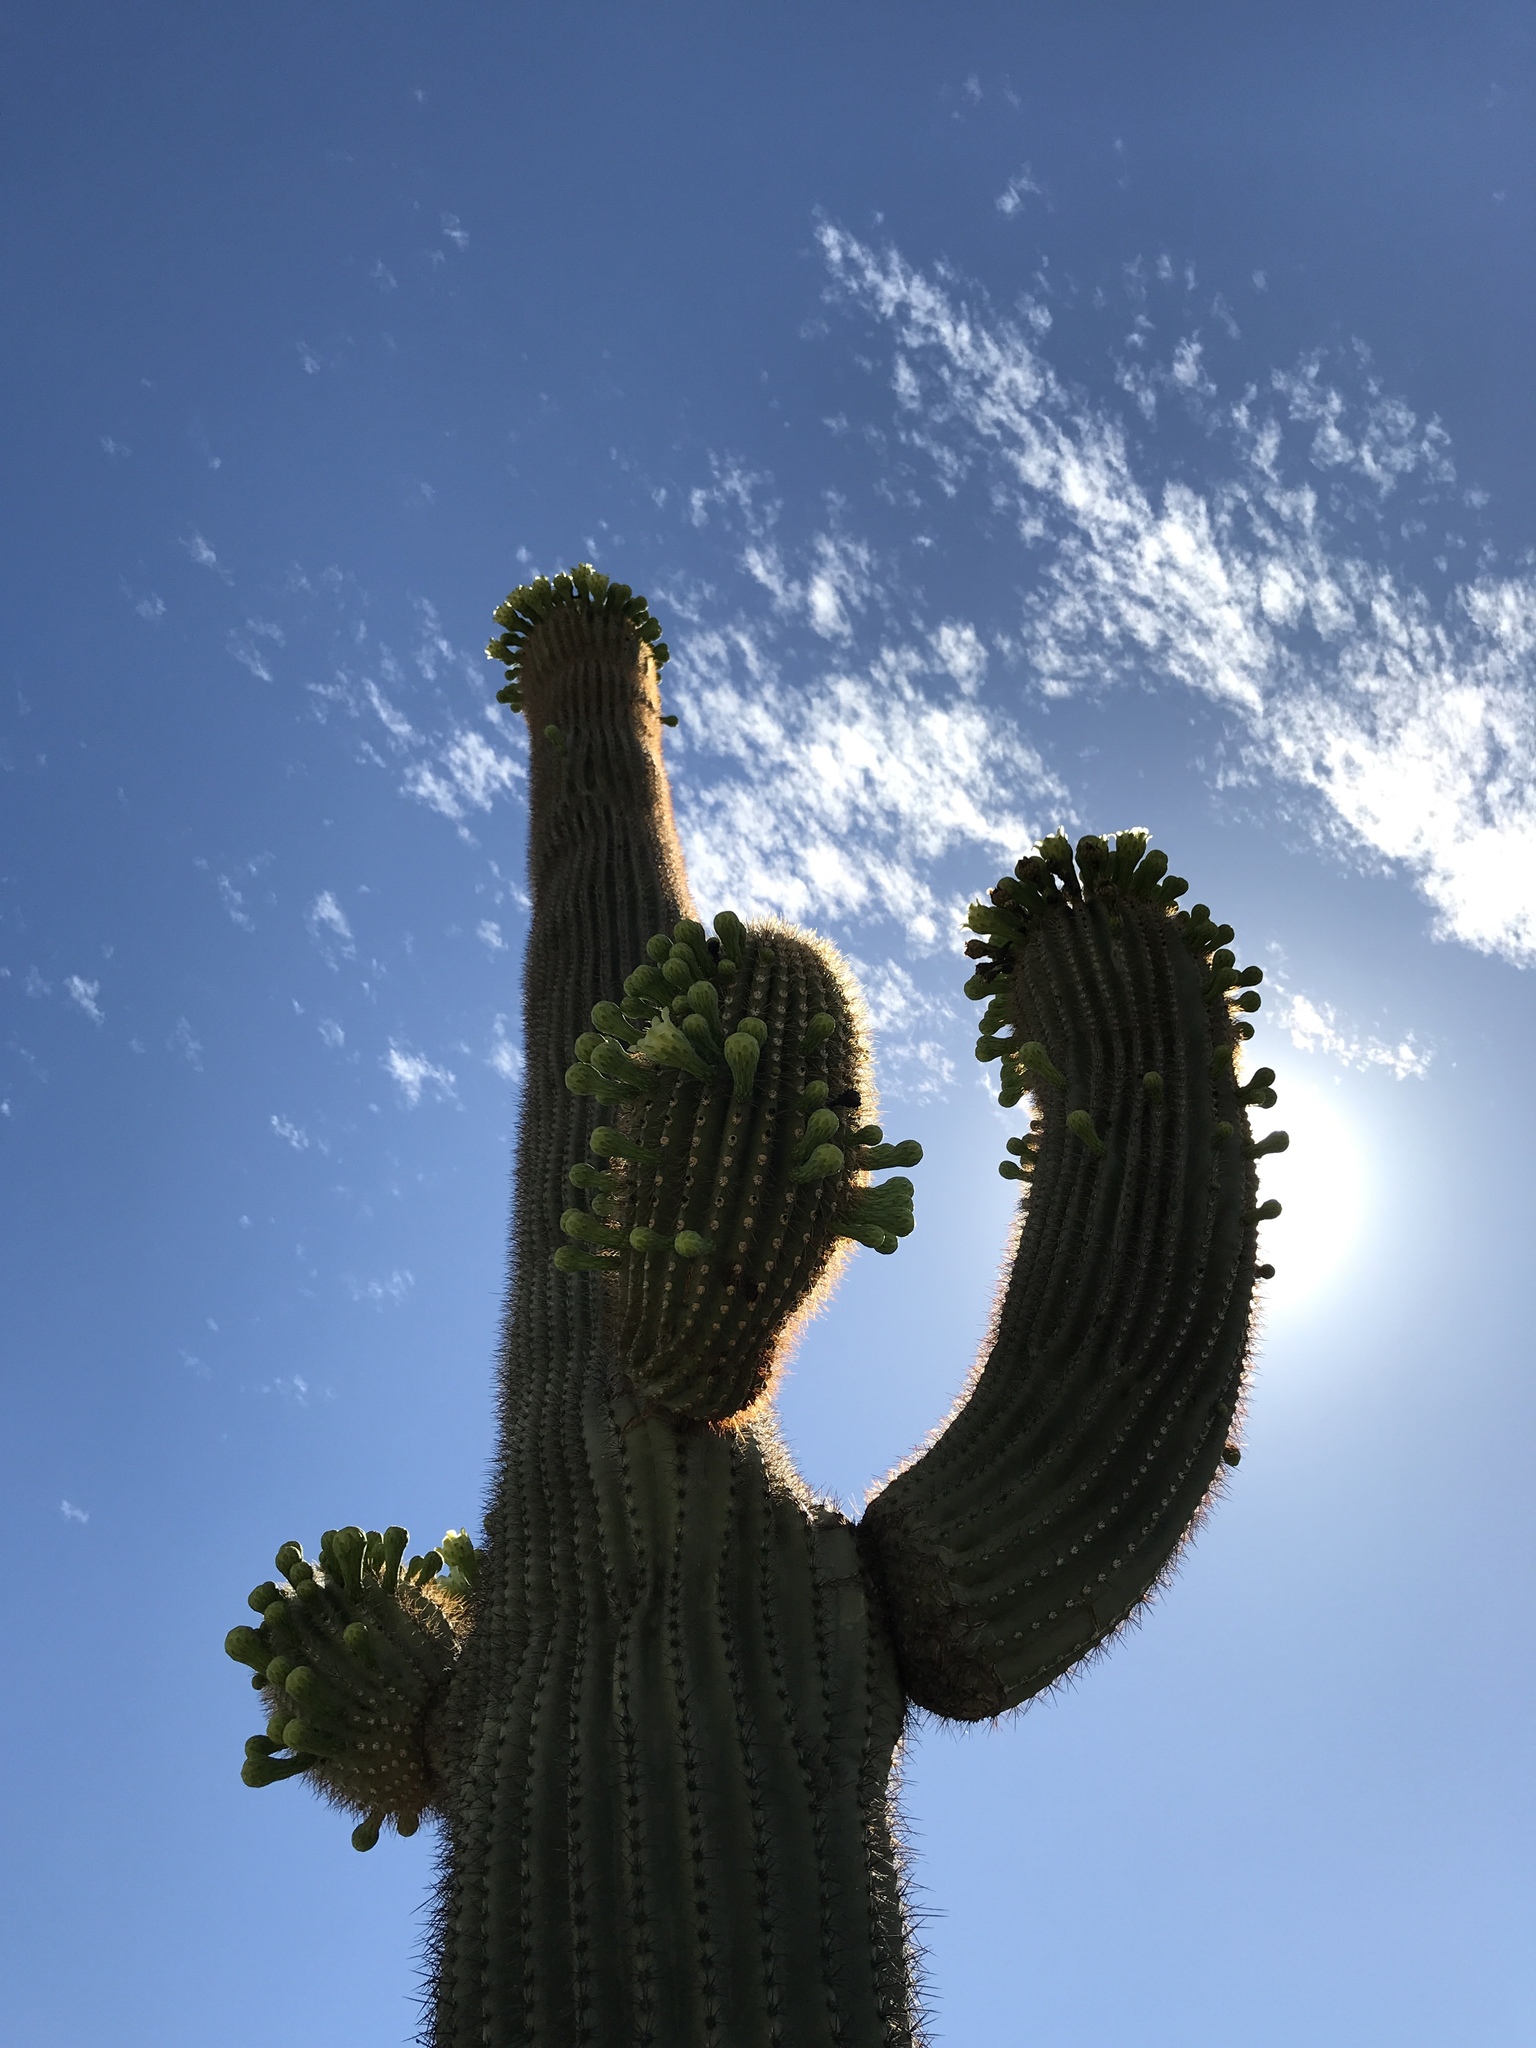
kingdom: Plantae
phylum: Tracheophyta
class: Magnoliopsida
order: Caryophyllales
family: Cactaceae
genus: Carnegiea
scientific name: Carnegiea gigantea
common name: Saguaro
